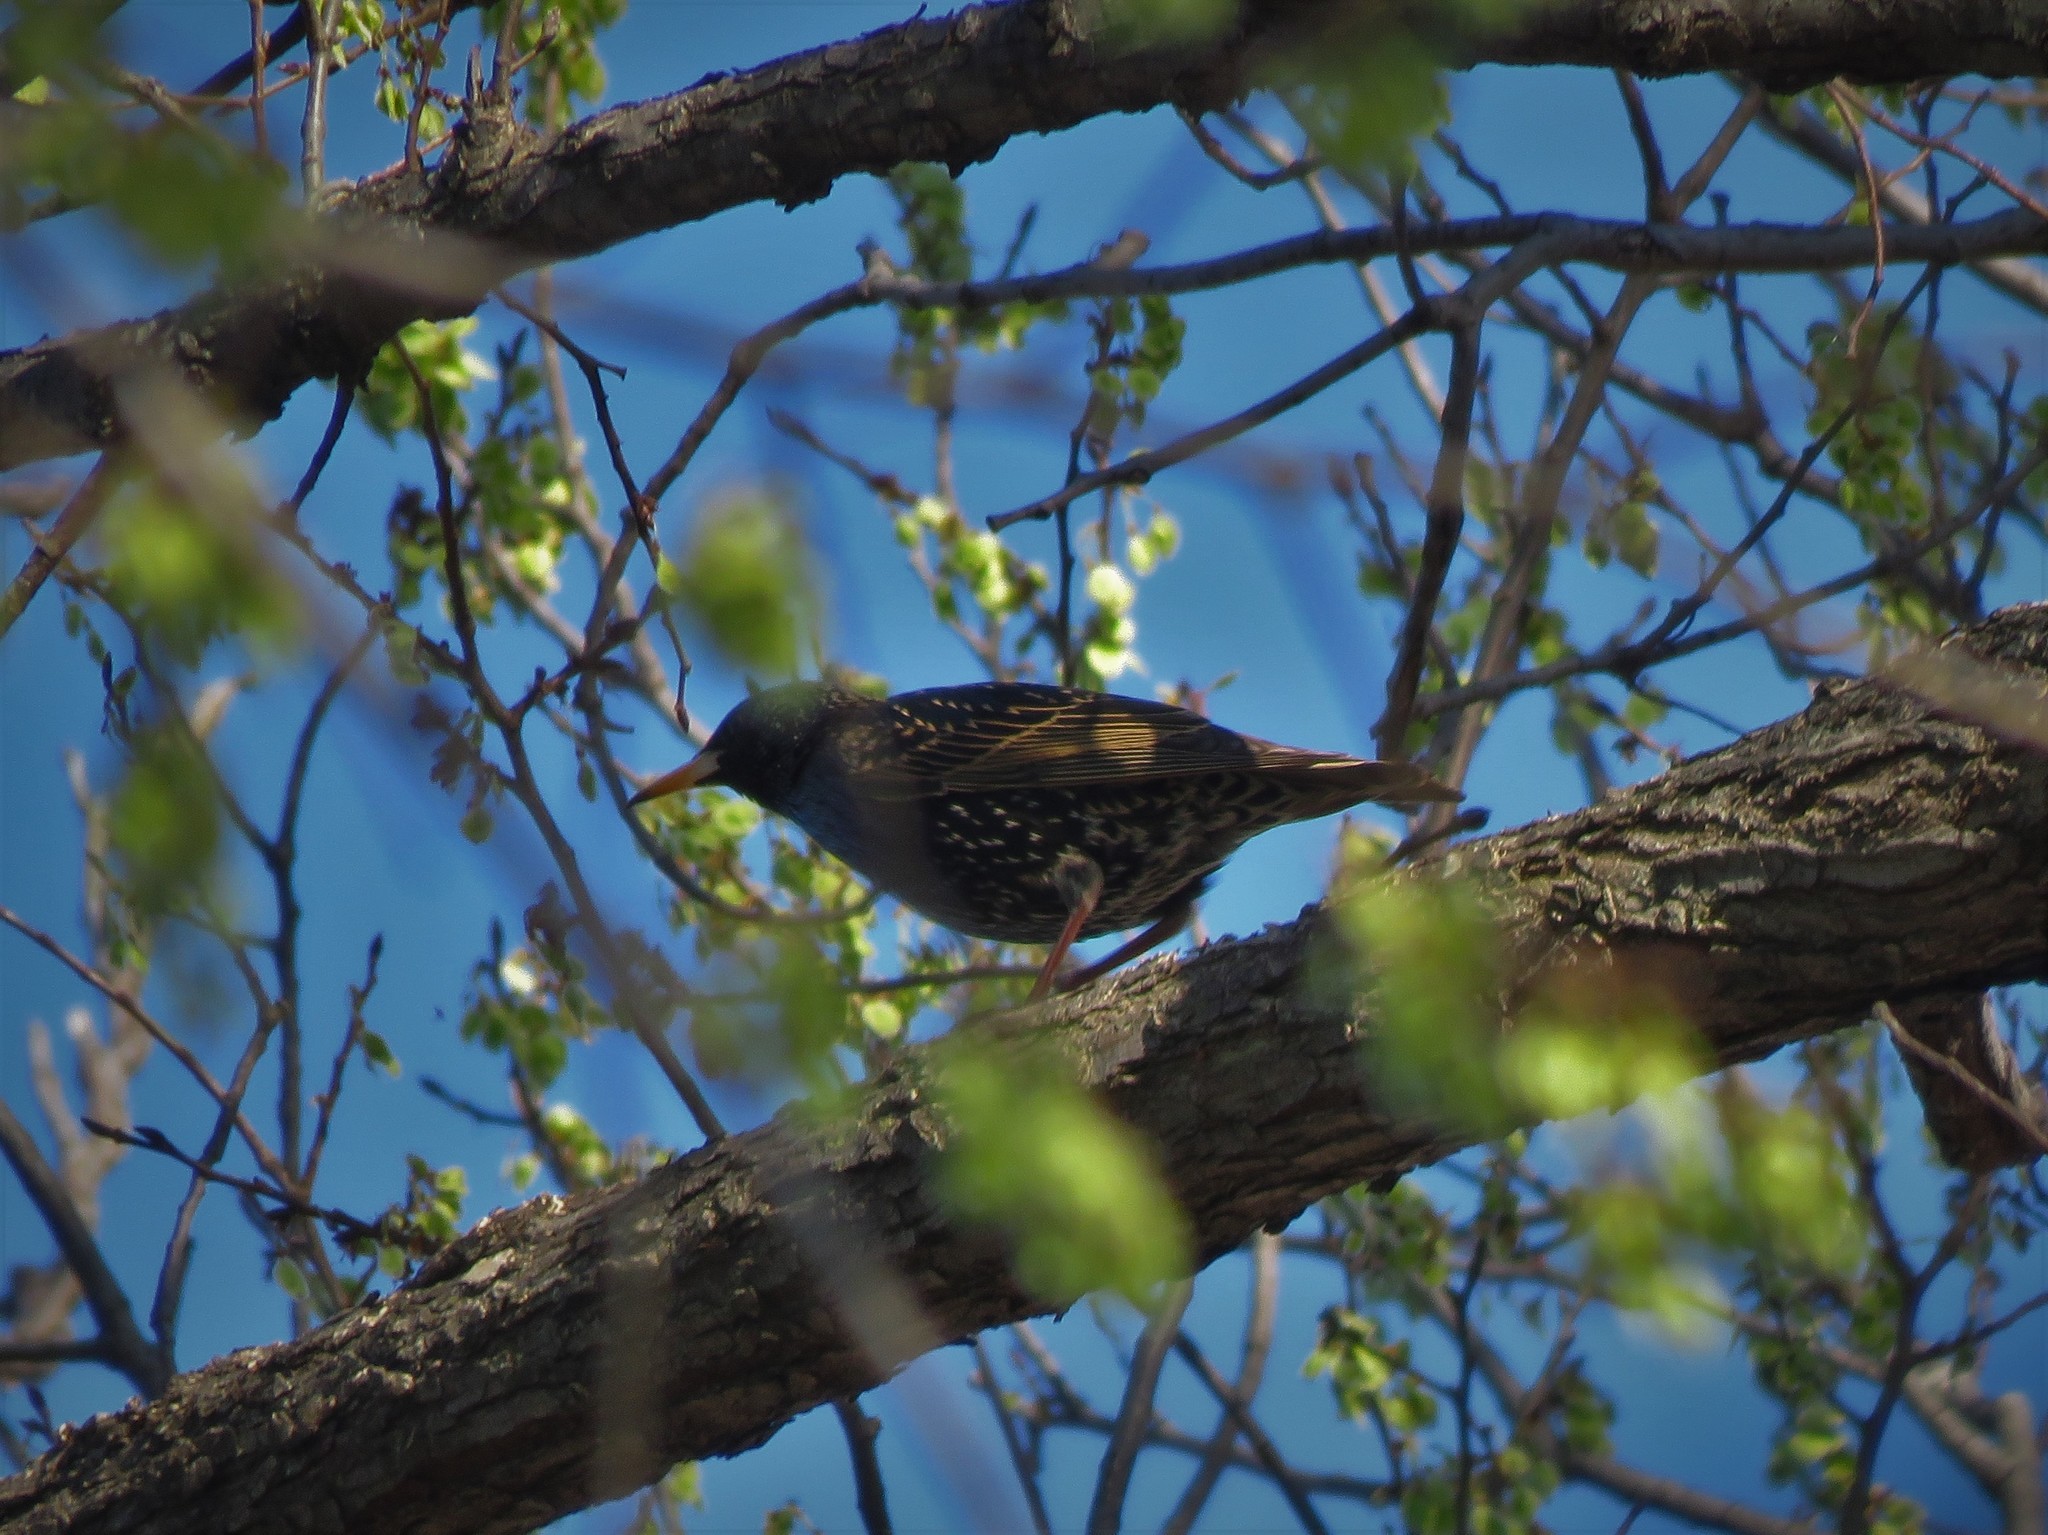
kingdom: Animalia
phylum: Chordata
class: Aves
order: Passeriformes
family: Sturnidae
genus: Sturnus
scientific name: Sturnus vulgaris
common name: Common starling
